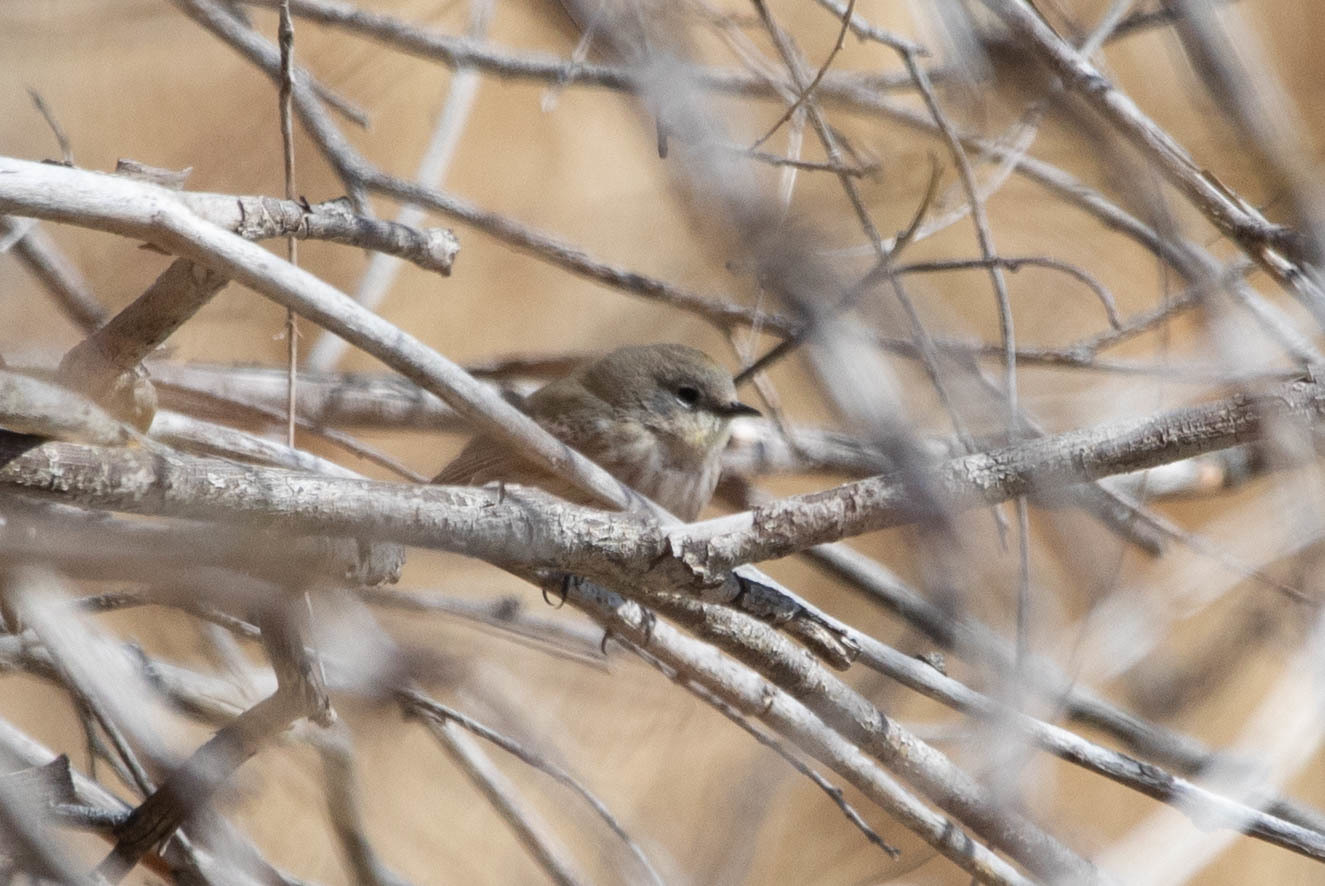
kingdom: Animalia
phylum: Chordata
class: Aves
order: Passeriformes
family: Parulidae
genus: Setophaga
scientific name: Setophaga coronata
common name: Myrtle warbler
